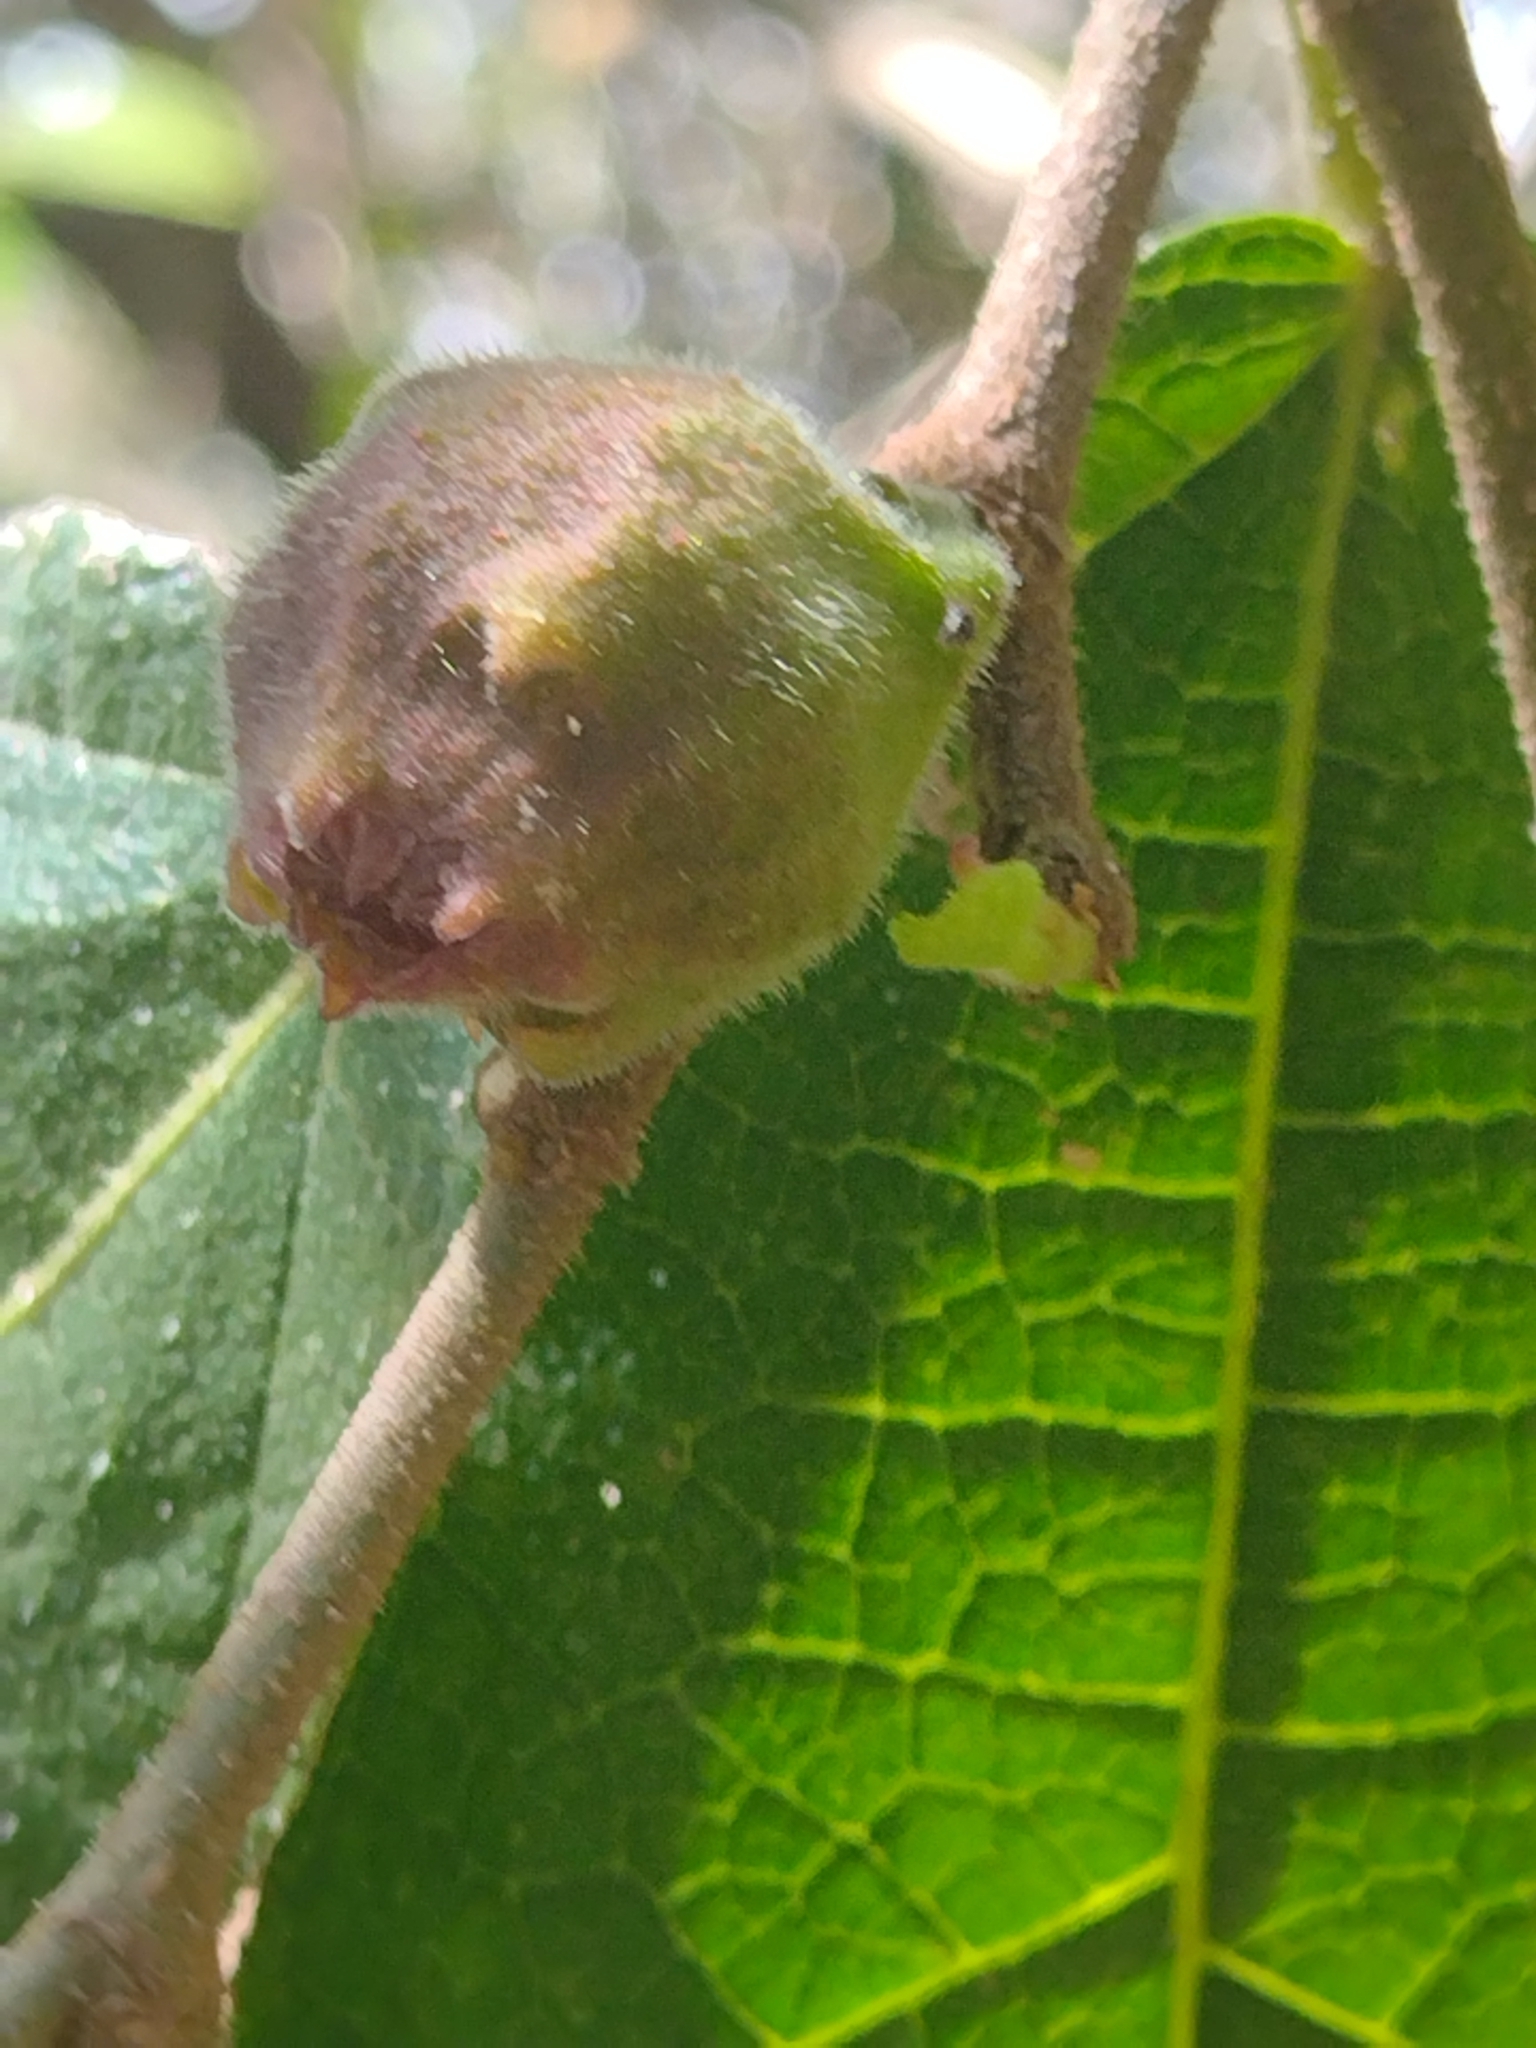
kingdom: Plantae
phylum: Tracheophyta
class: Magnoliopsida
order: Rosales
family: Moraceae
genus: Ficus
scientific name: Ficus coronata
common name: Creek sandpaper fig
